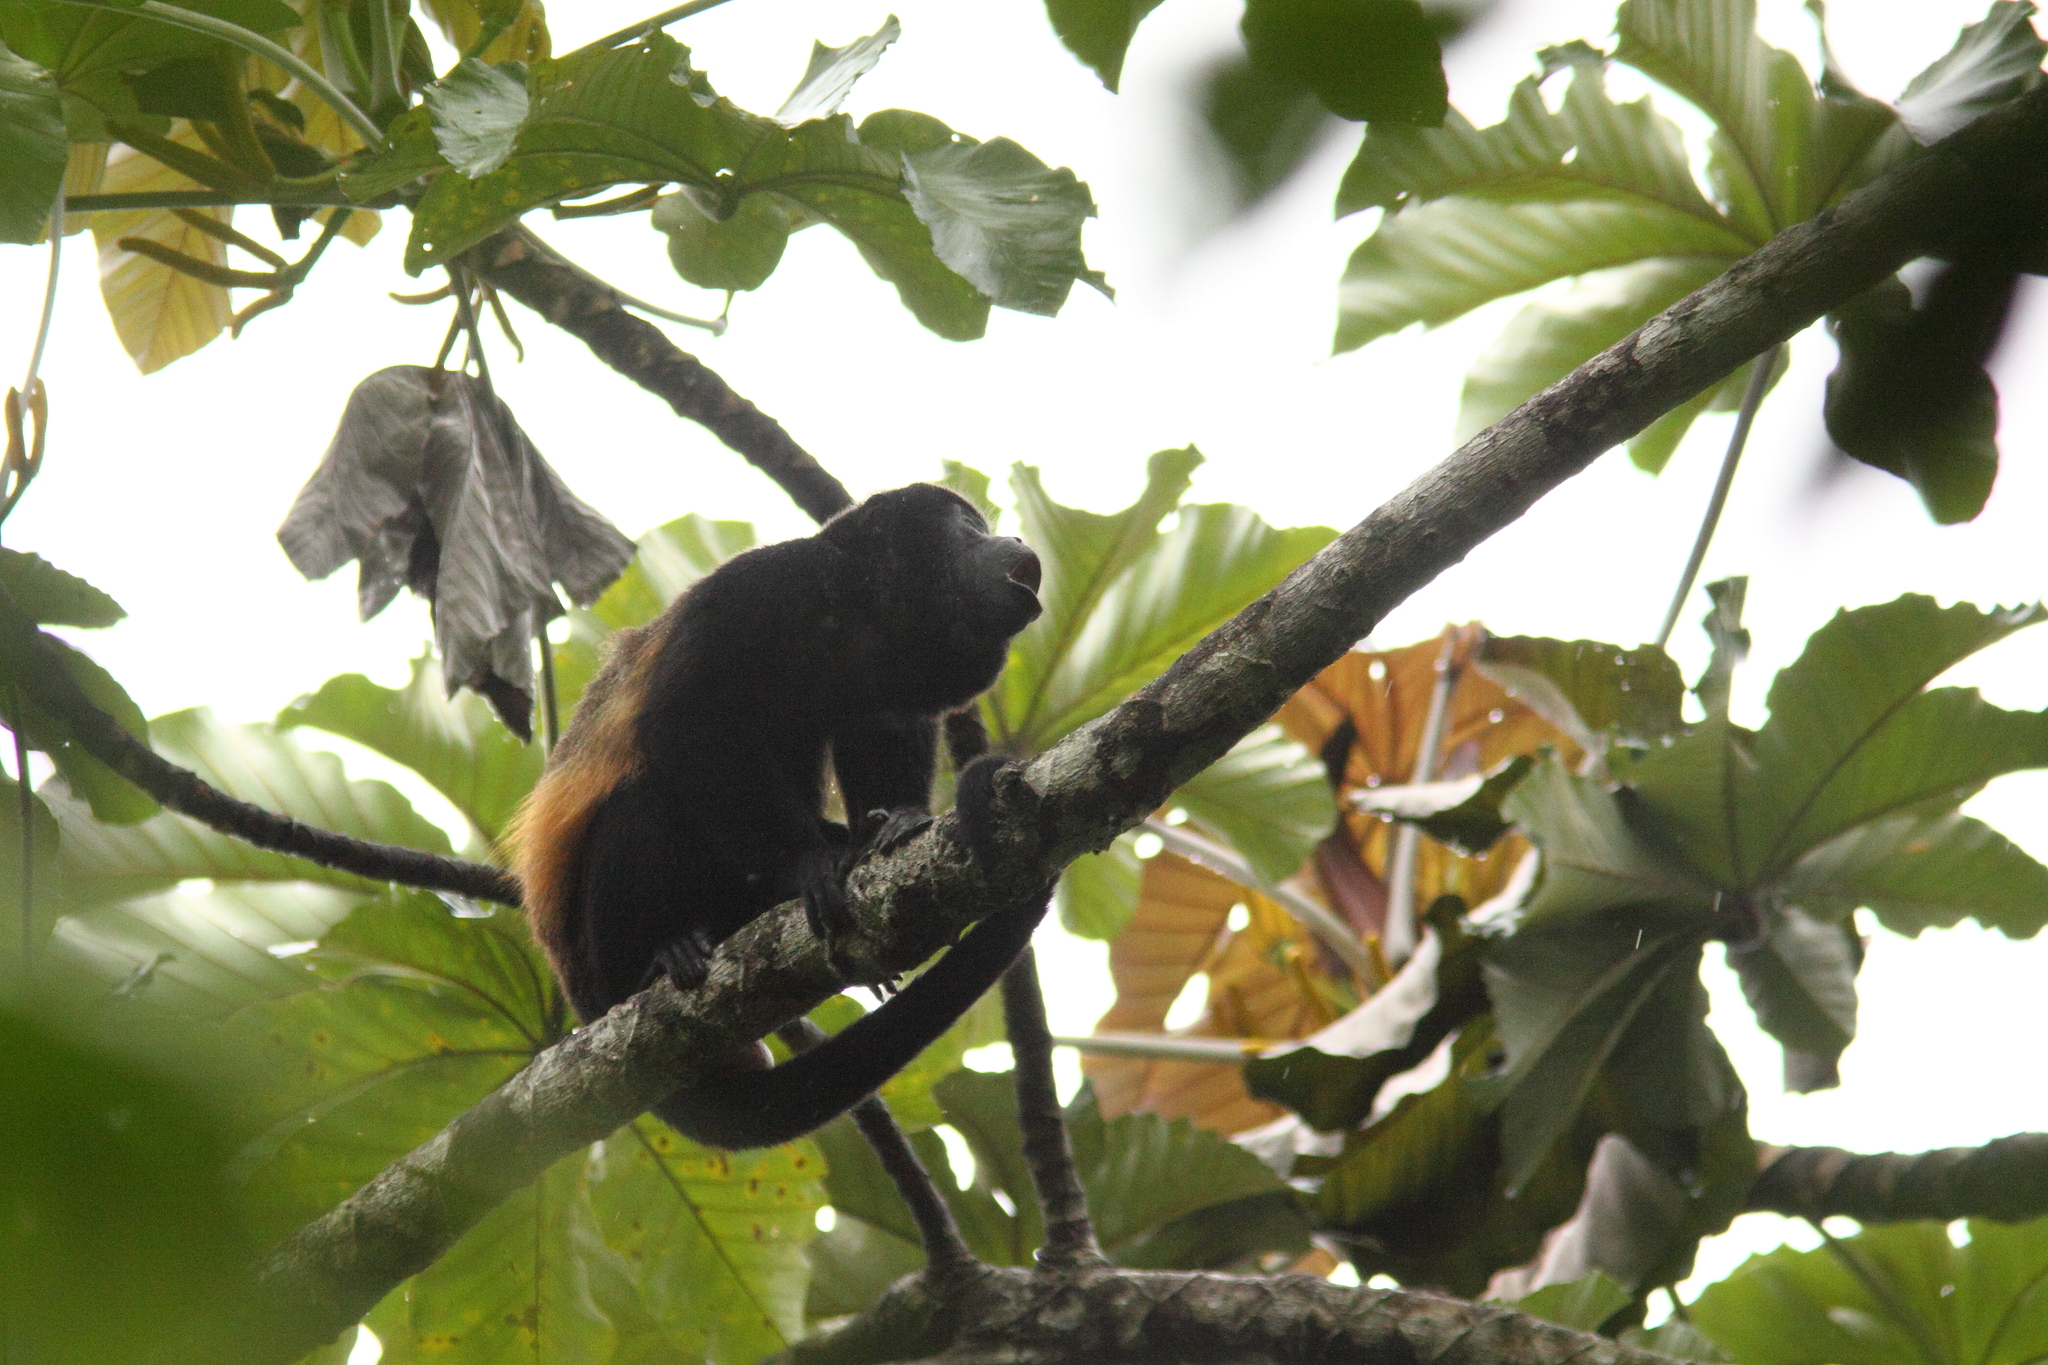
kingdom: Animalia
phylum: Chordata
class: Mammalia
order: Primates
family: Atelidae
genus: Alouatta
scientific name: Alouatta palliata
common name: Mantled howler
